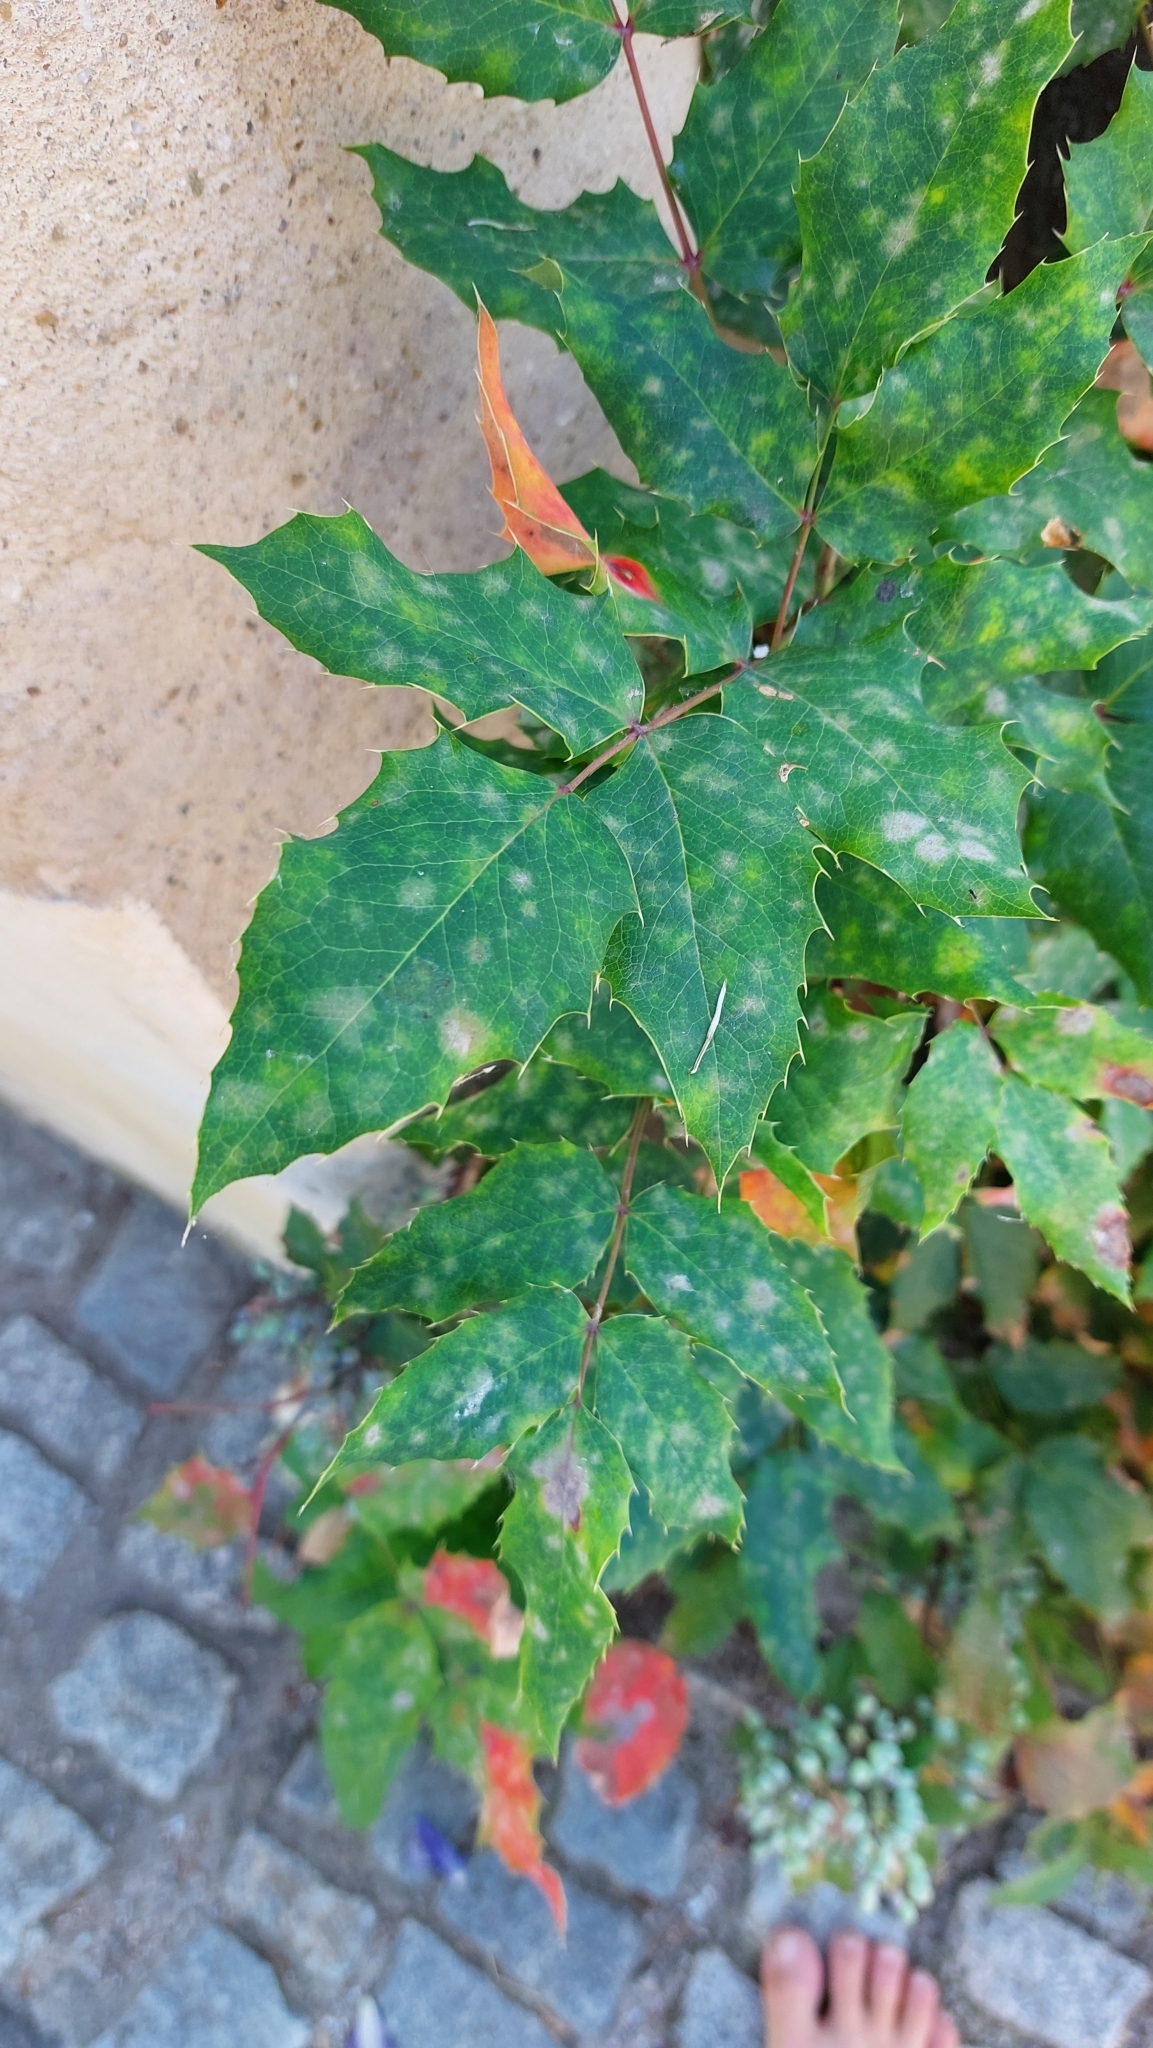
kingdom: Fungi
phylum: Ascomycota
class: Leotiomycetes
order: Helotiales
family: Erysiphaceae
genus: Erysiphe
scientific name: Erysiphe berberidis
